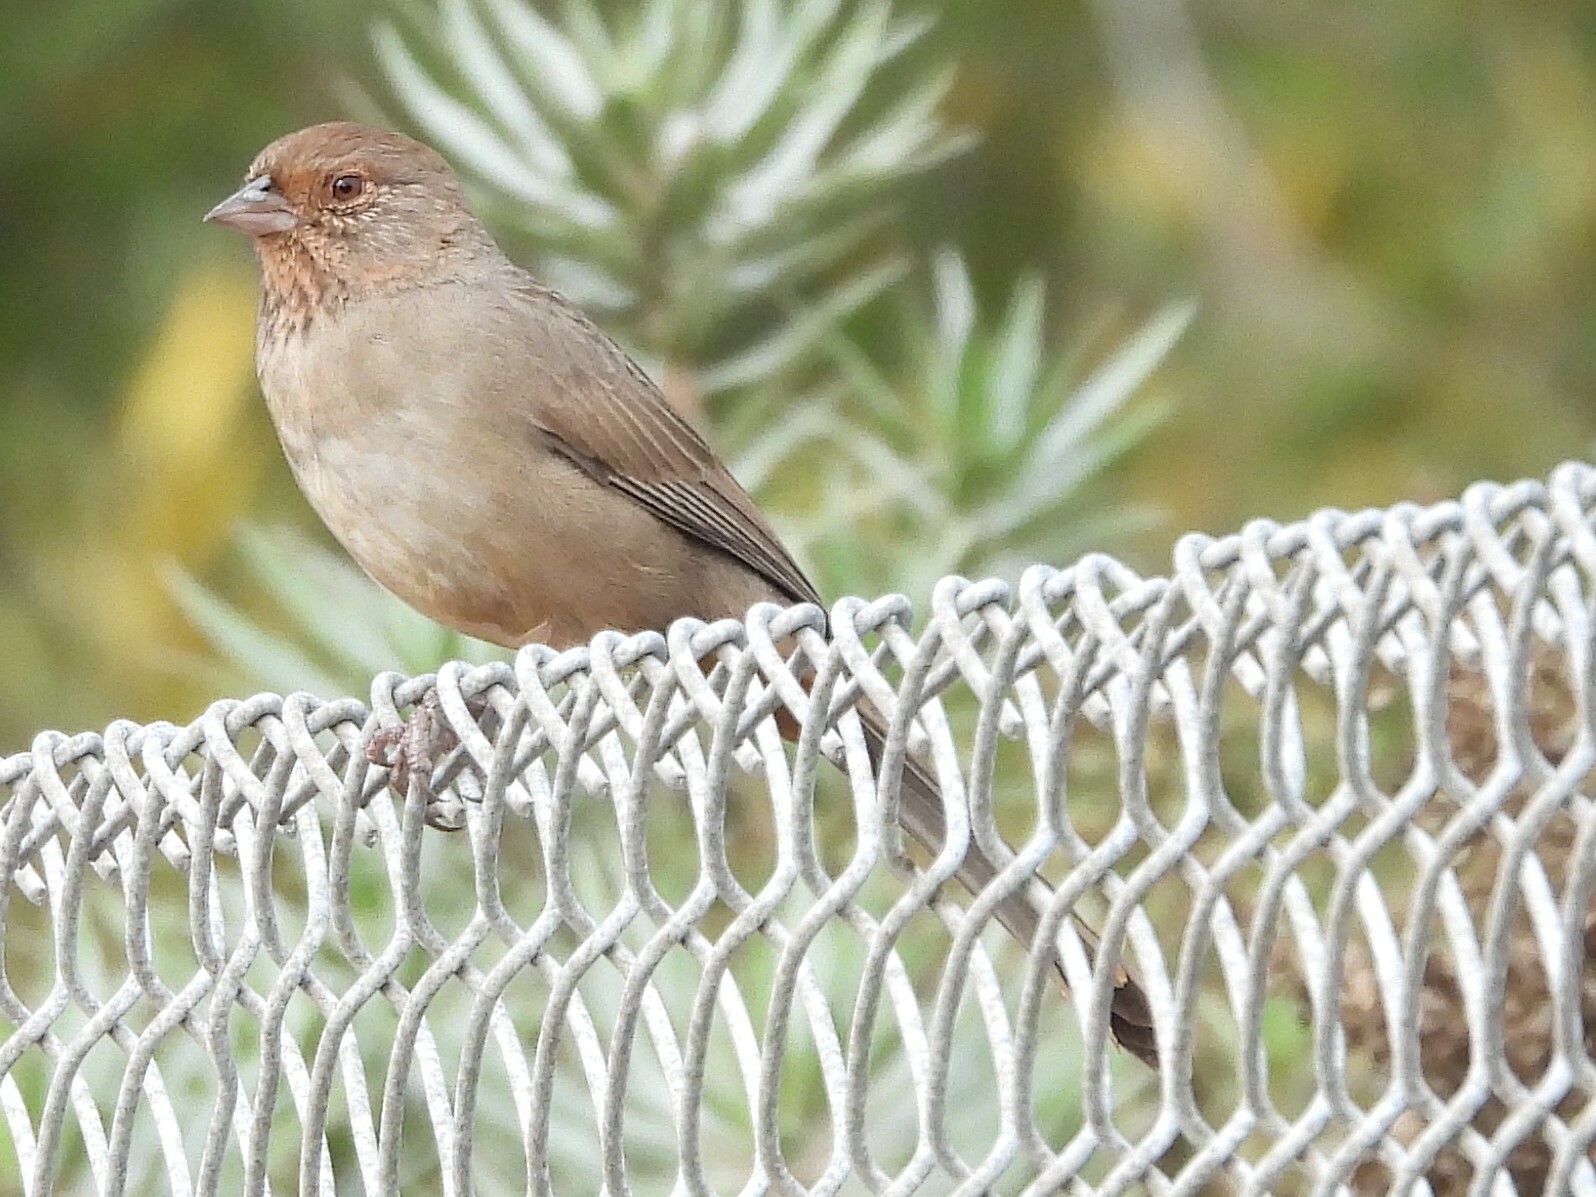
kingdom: Animalia
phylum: Chordata
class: Aves
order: Passeriformes
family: Passerellidae
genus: Melozone
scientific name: Melozone crissalis
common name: California towhee
